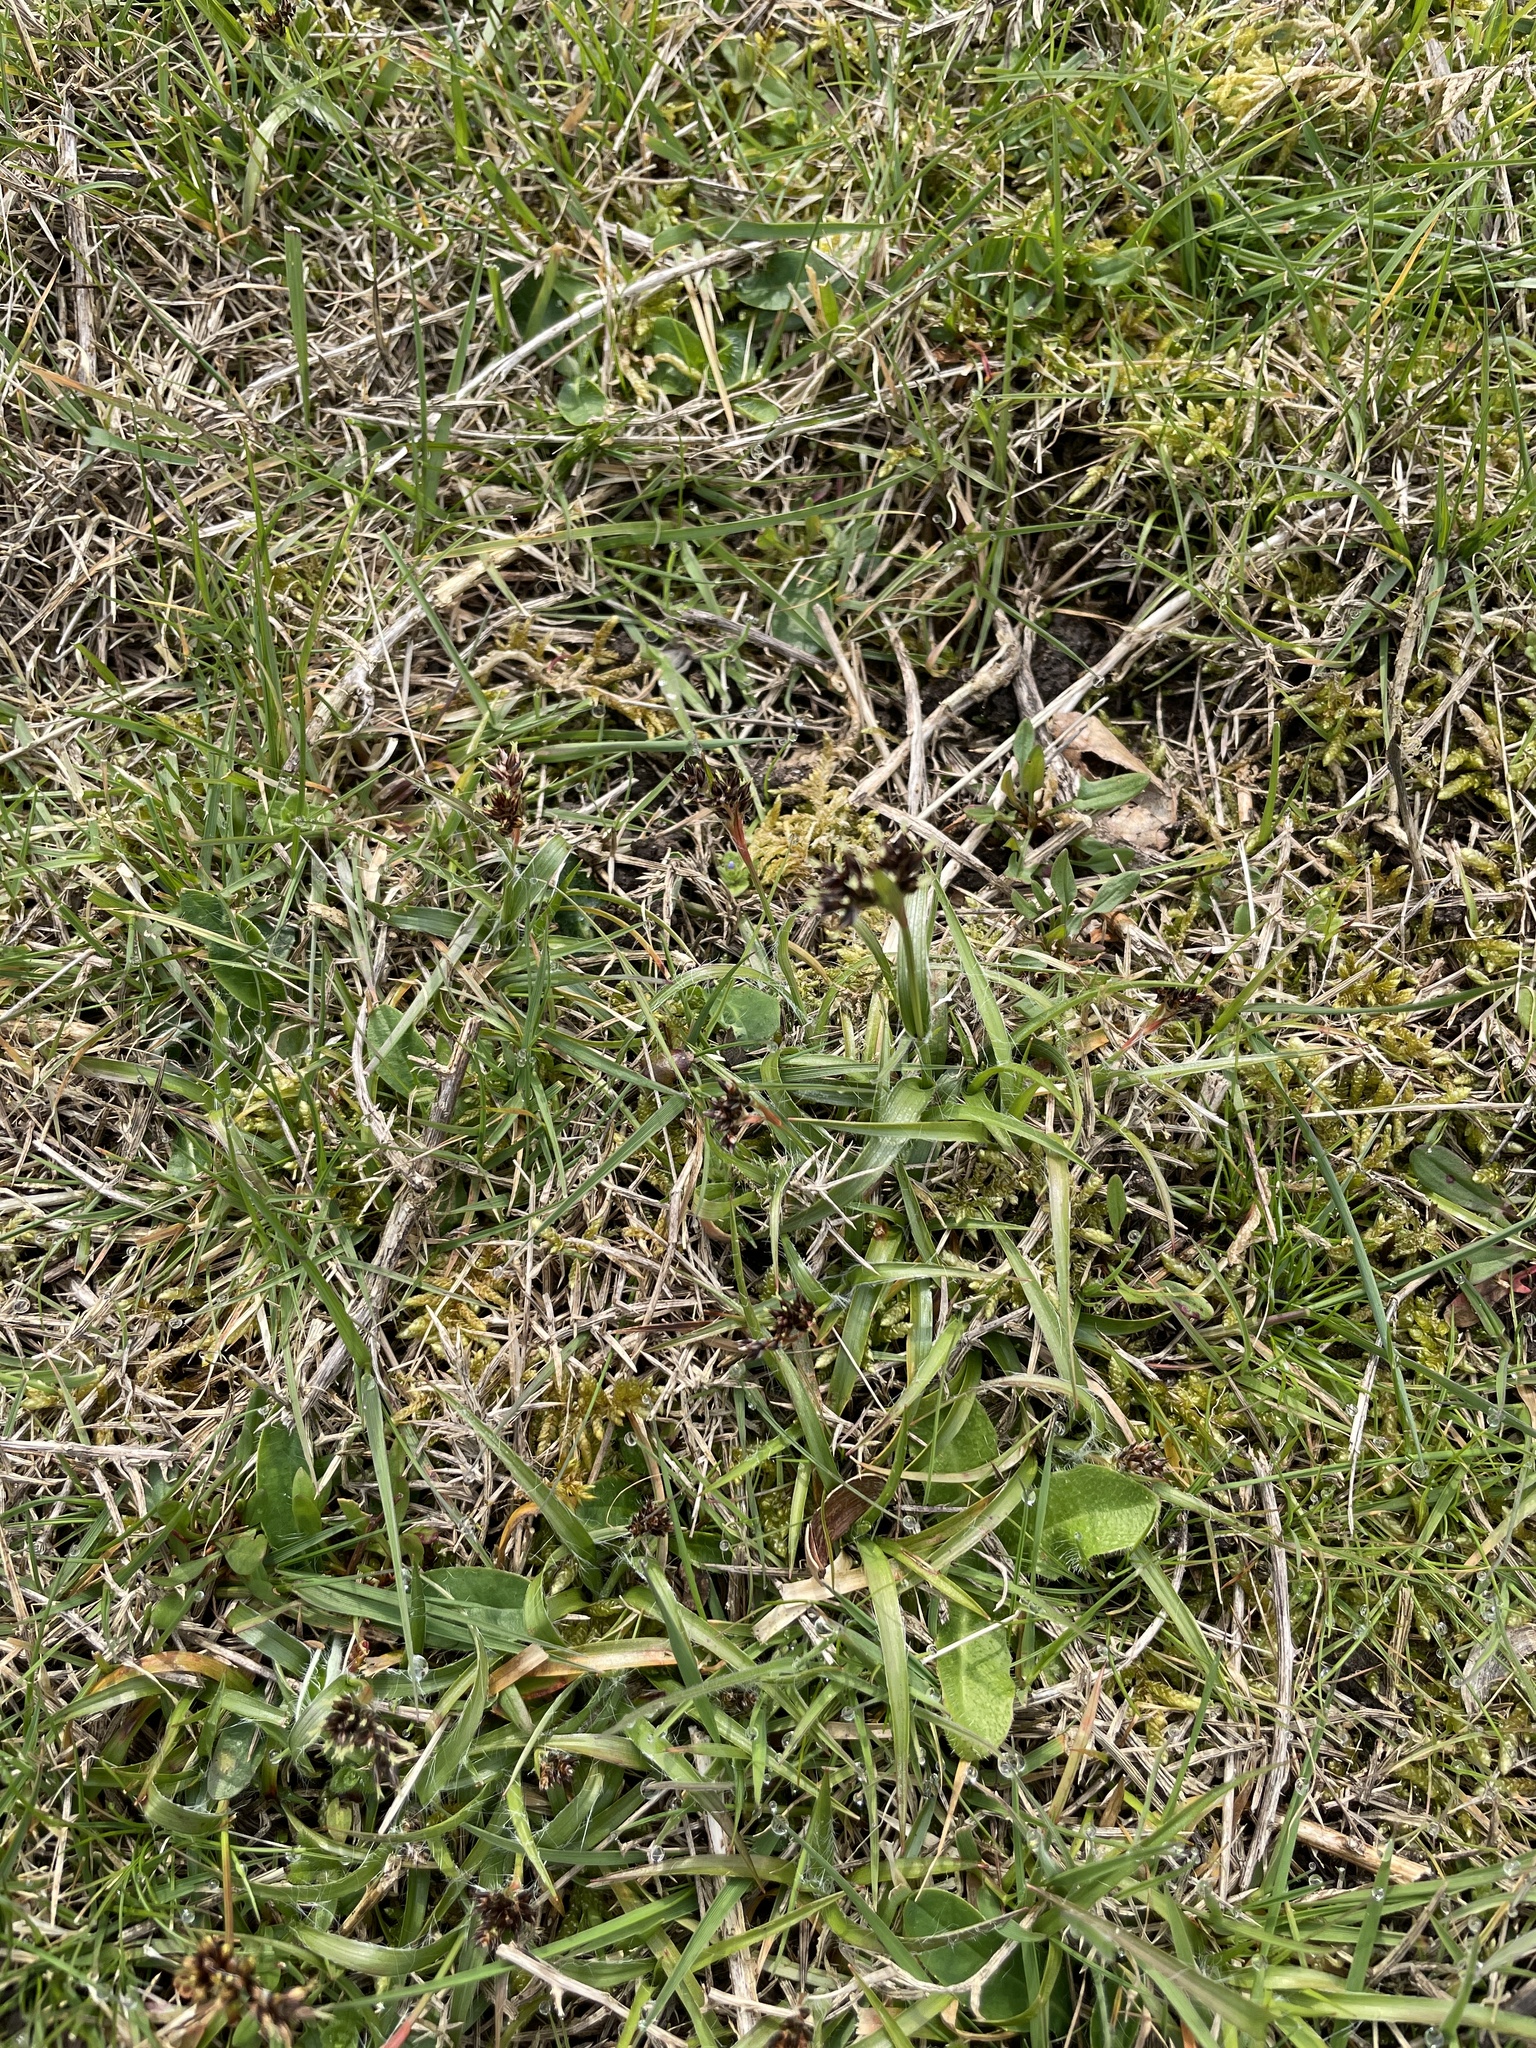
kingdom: Plantae
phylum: Tracheophyta
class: Liliopsida
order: Poales
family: Juncaceae
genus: Luzula
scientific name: Luzula campestris
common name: Field wood-rush
